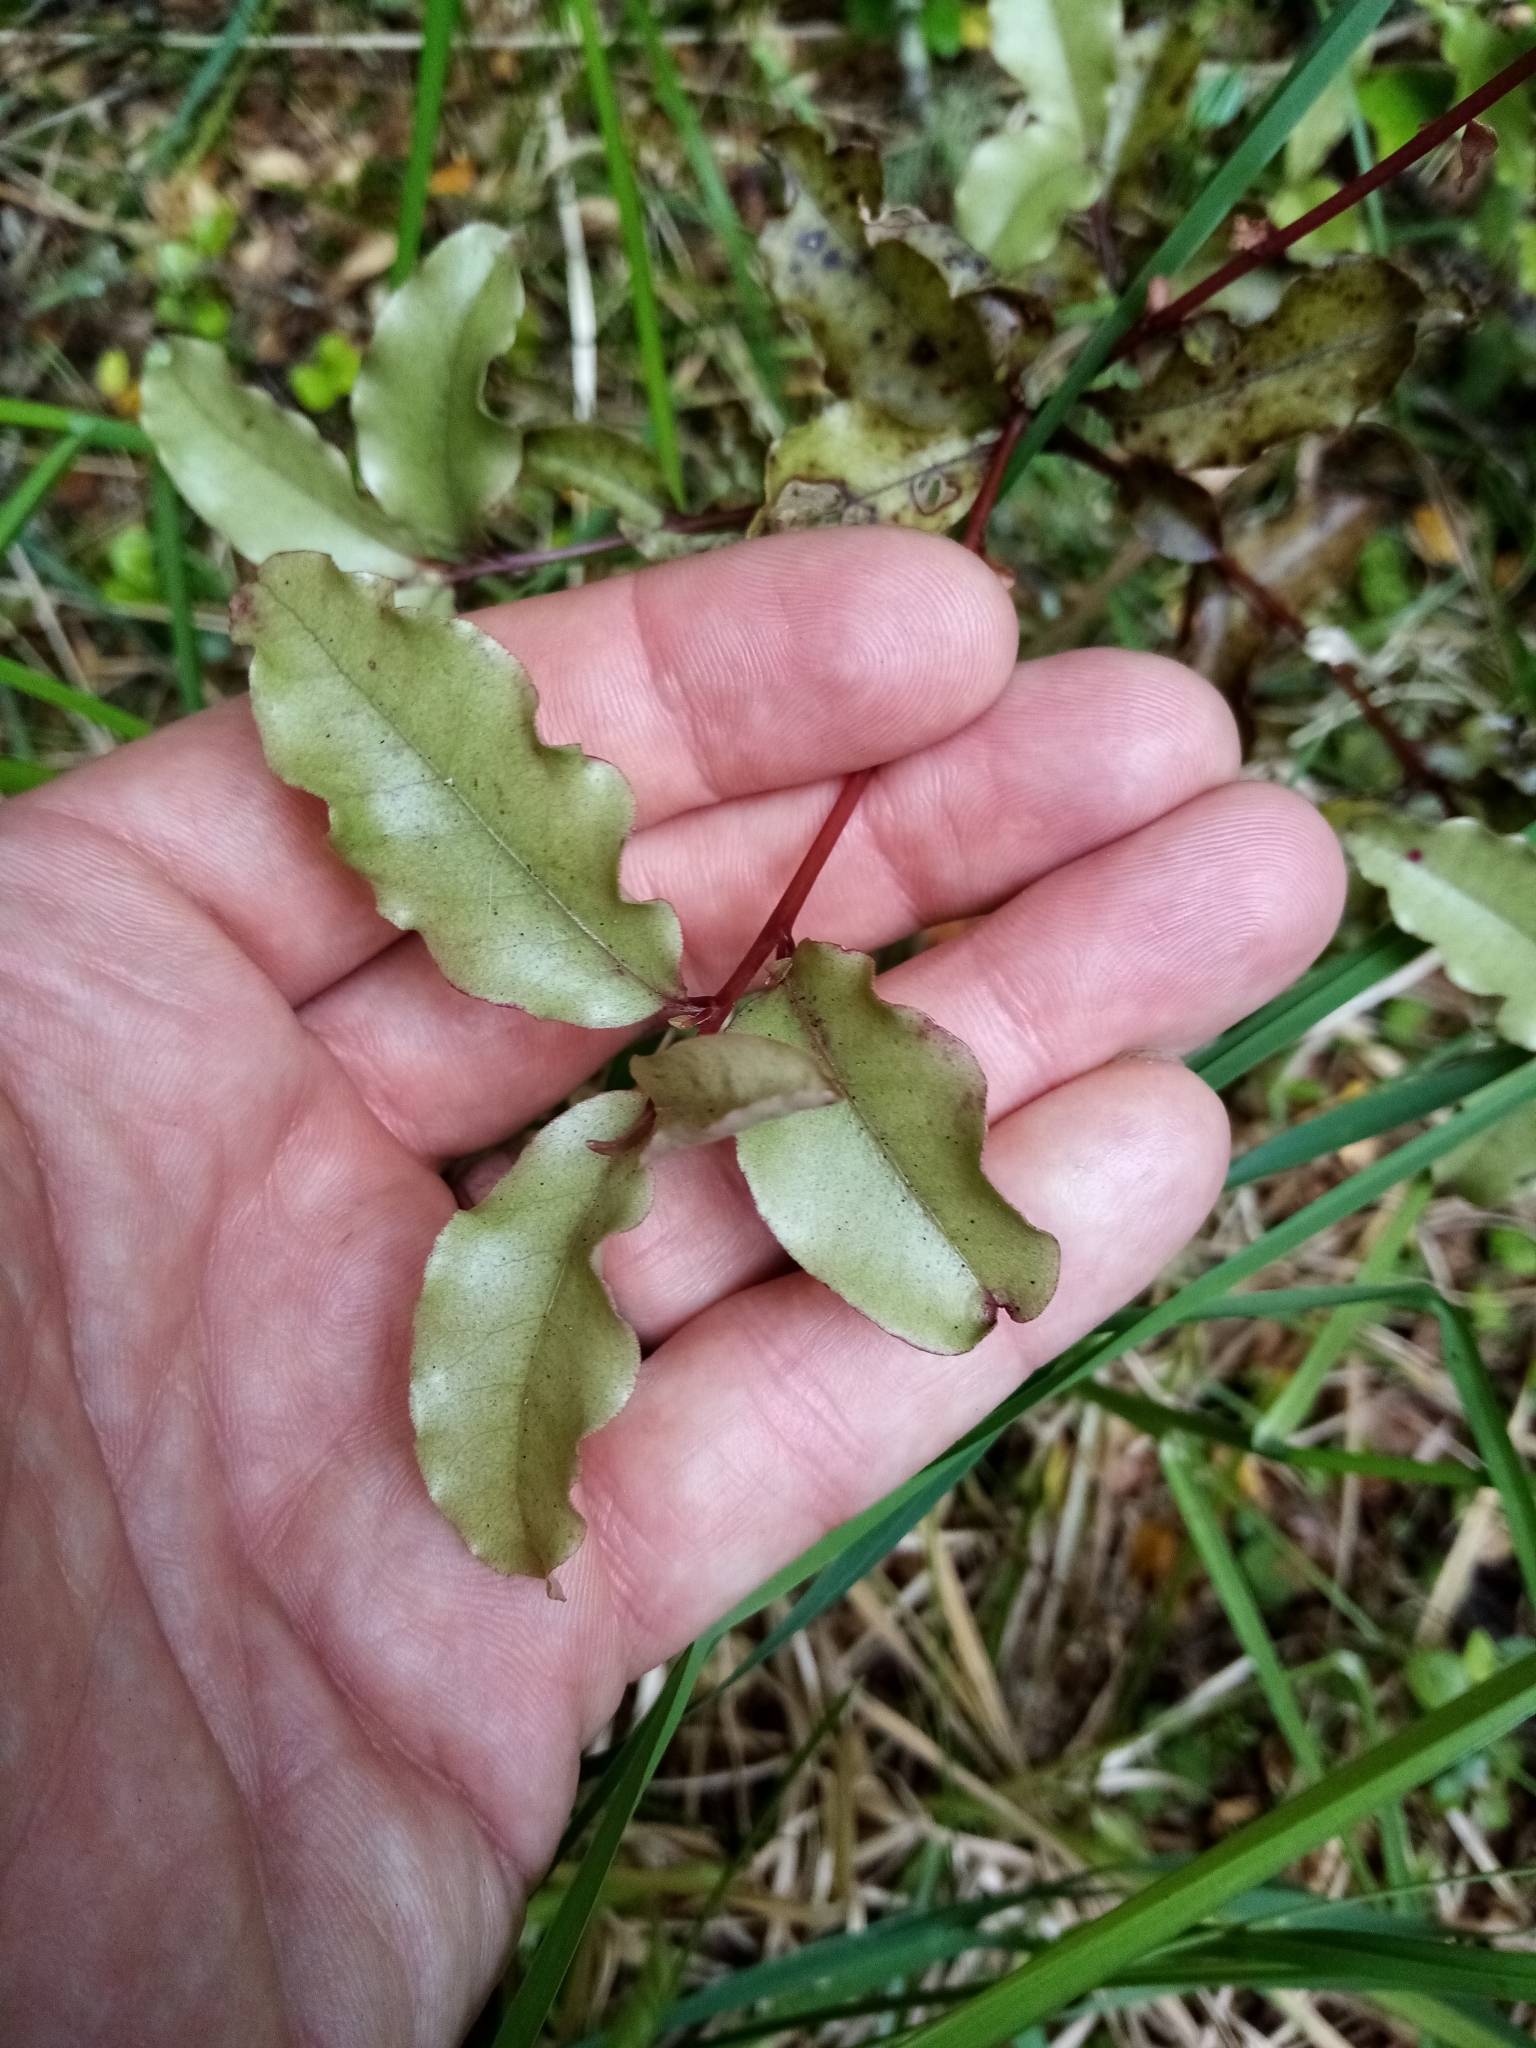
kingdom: Plantae
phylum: Tracheophyta
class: Magnoliopsida
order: Ericales
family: Primulaceae
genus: Myrsine
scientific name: Myrsine australis
